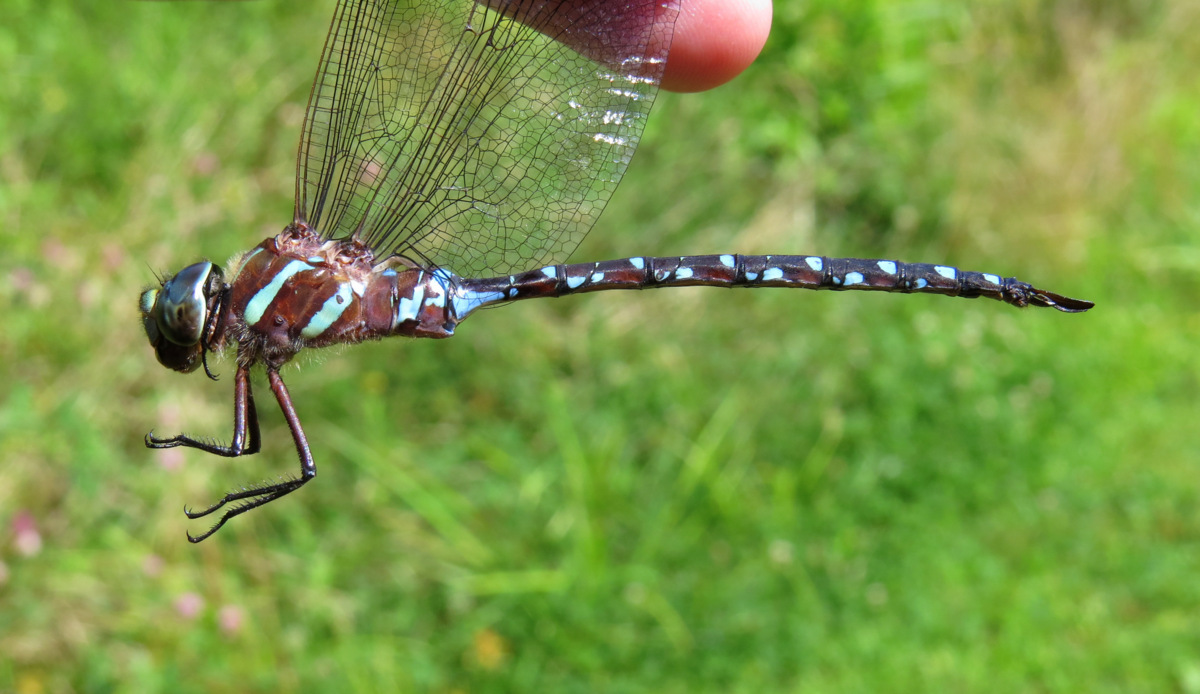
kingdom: Animalia
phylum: Arthropoda
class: Insecta
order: Odonata
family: Aeshnidae
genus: Aeshna
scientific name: Aeshna tuberculifera
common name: Aeschne à tubercules
